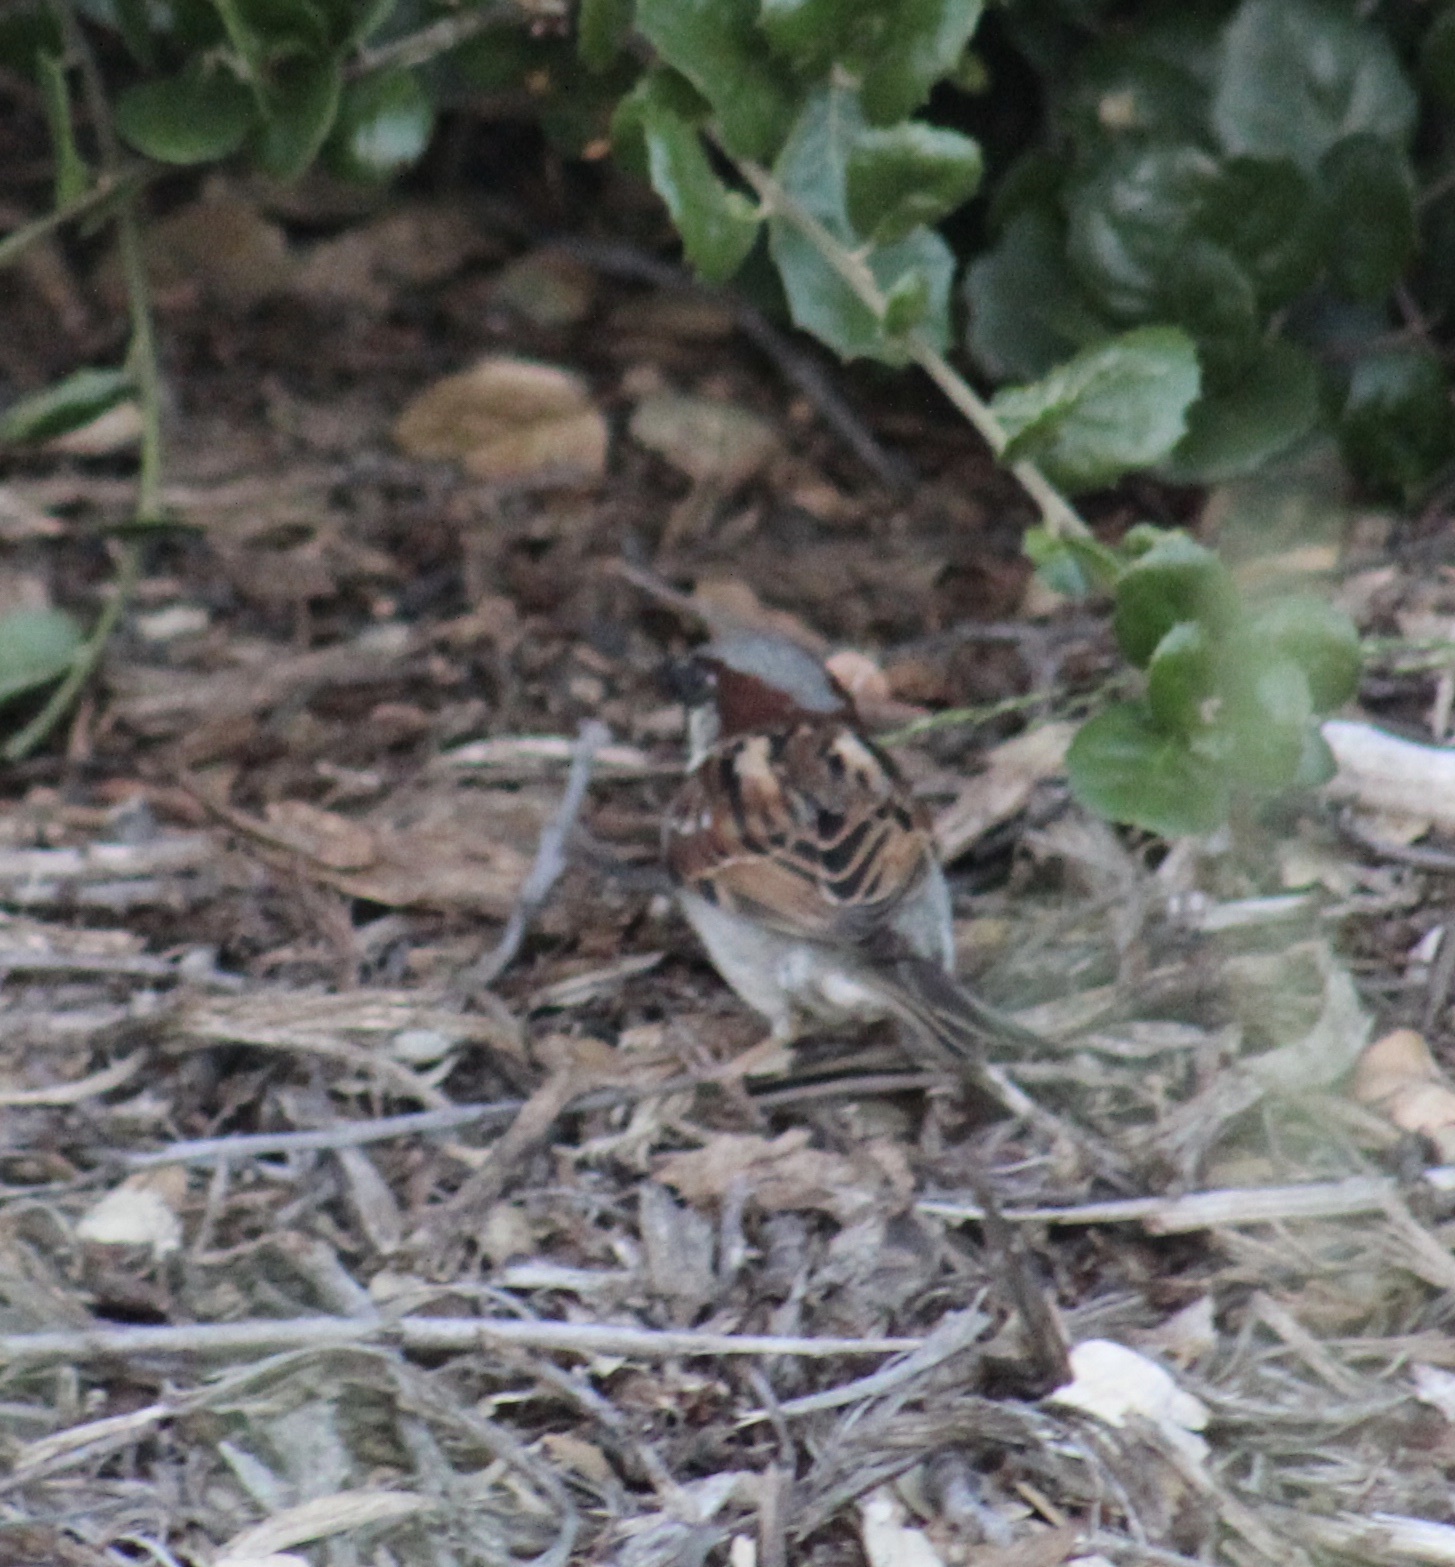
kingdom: Animalia
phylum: Chordata
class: Aves
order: Passeriformes
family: Passeridae
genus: Passer
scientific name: Passer domesticus
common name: House sparrow
